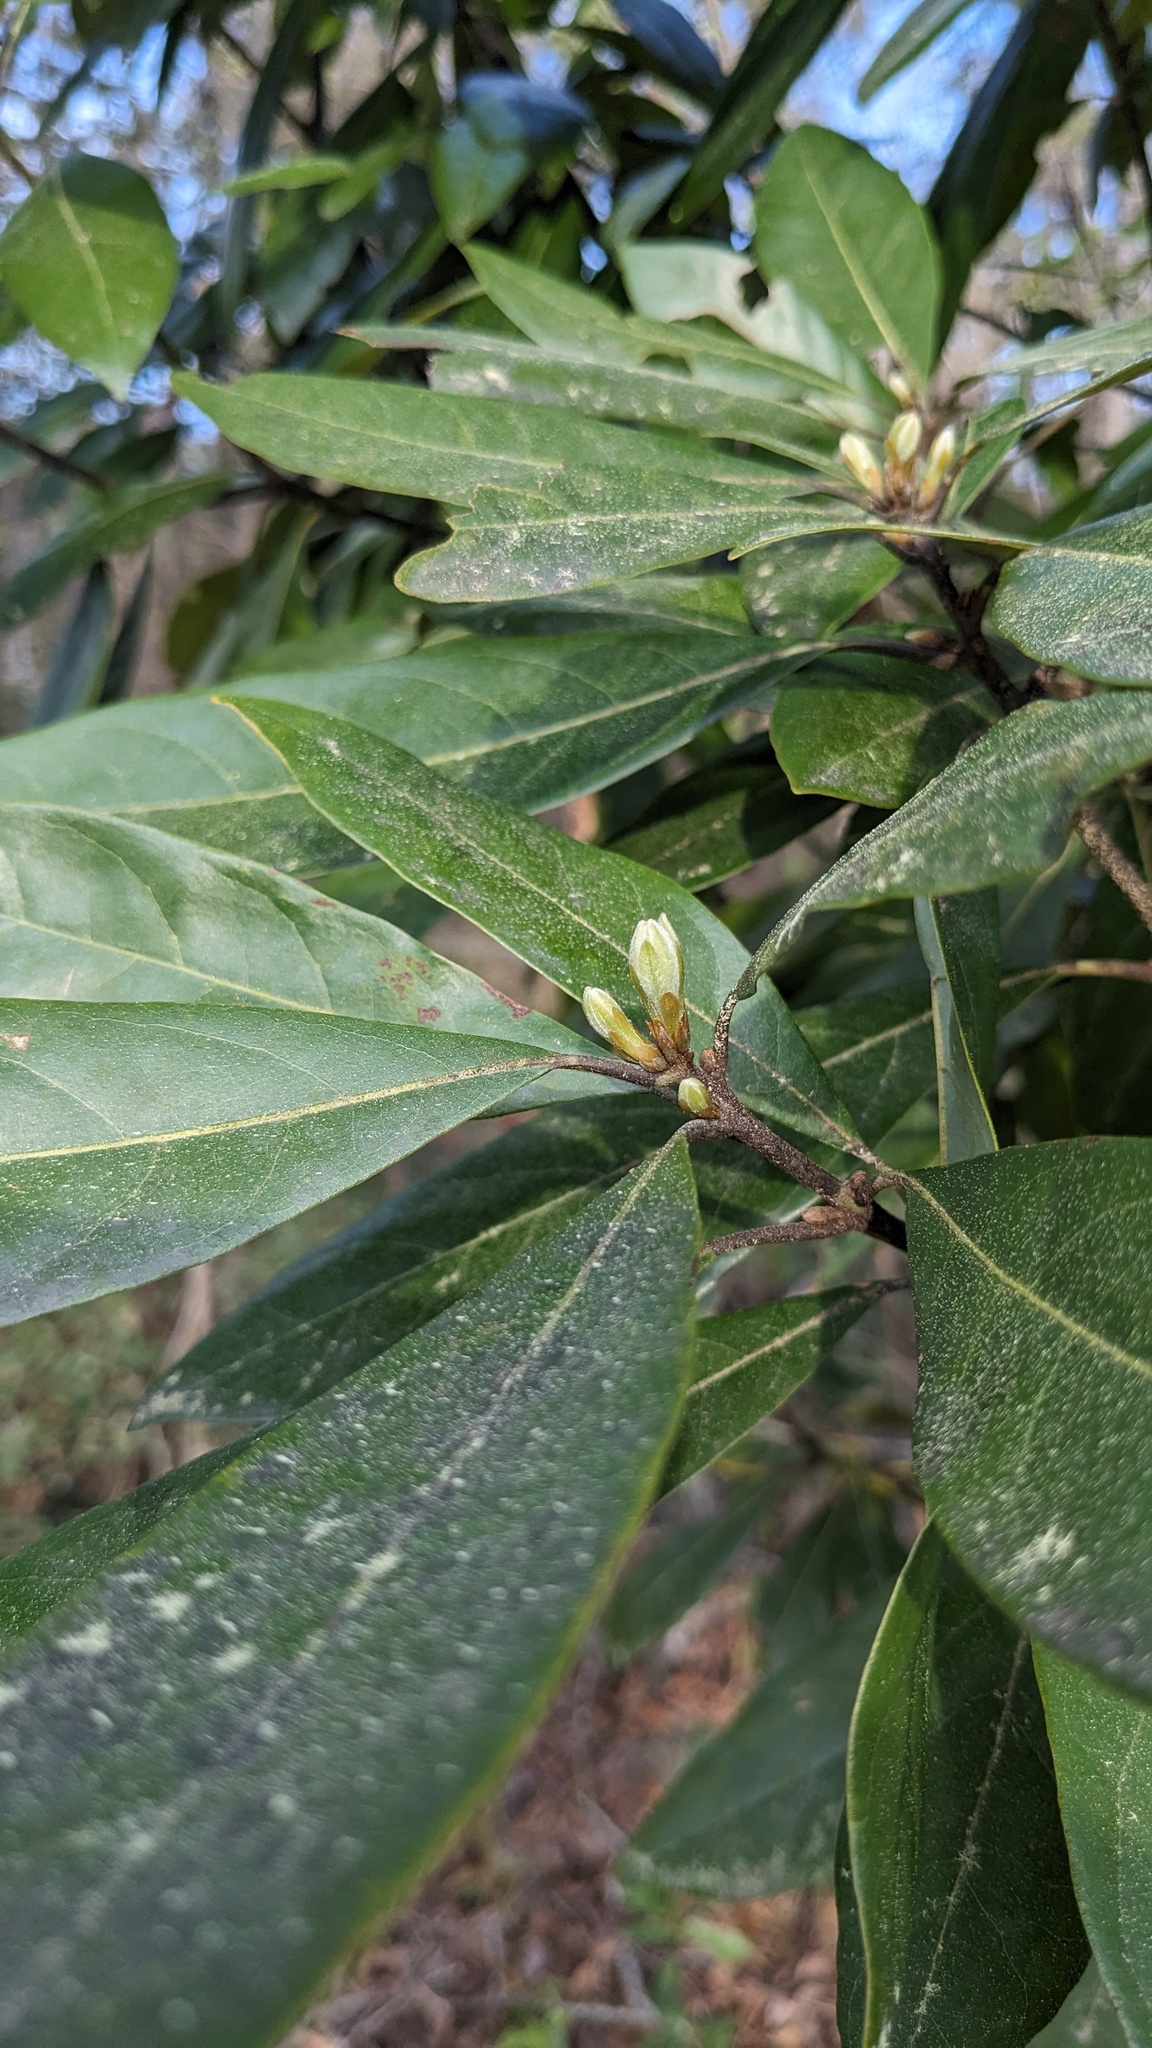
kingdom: Plantae
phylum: Tracheophyta
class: Magnoliopsida
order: Laurales
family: Lauraceae
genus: Persea
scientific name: Persea palustris
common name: Swampbay
